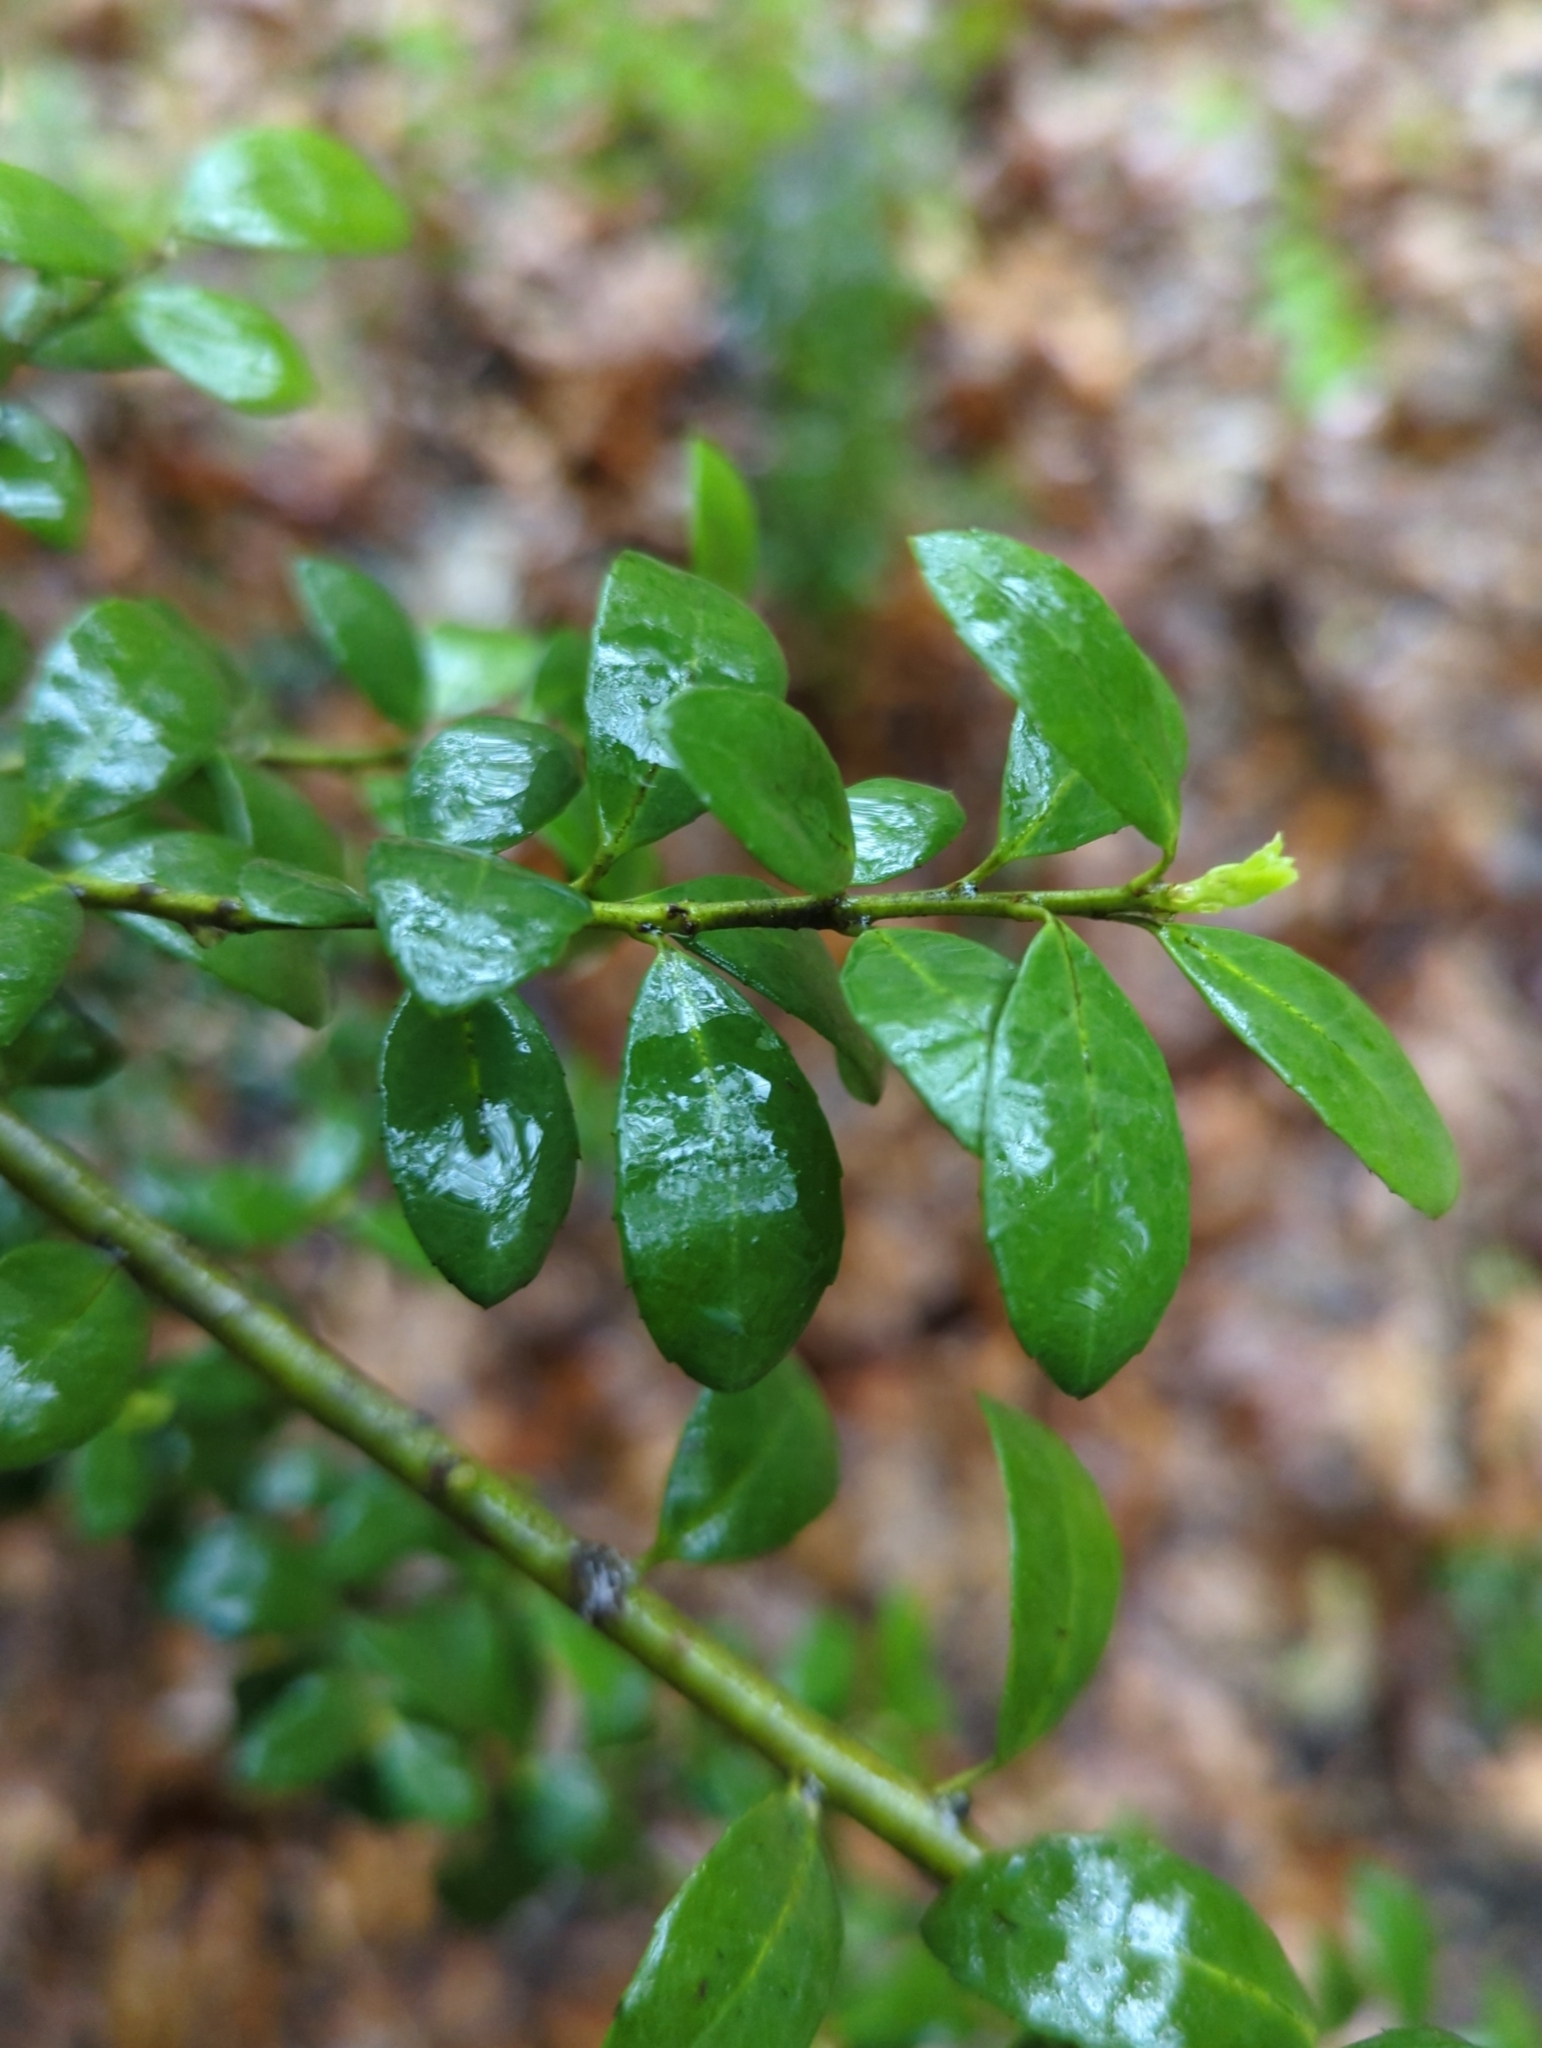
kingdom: Plantae
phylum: Tracheophyta
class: Magnoliopsida
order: Aquifoliales
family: Aquifoliaceae
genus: Ilex
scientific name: Ilex crenata
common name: Japanese holly
